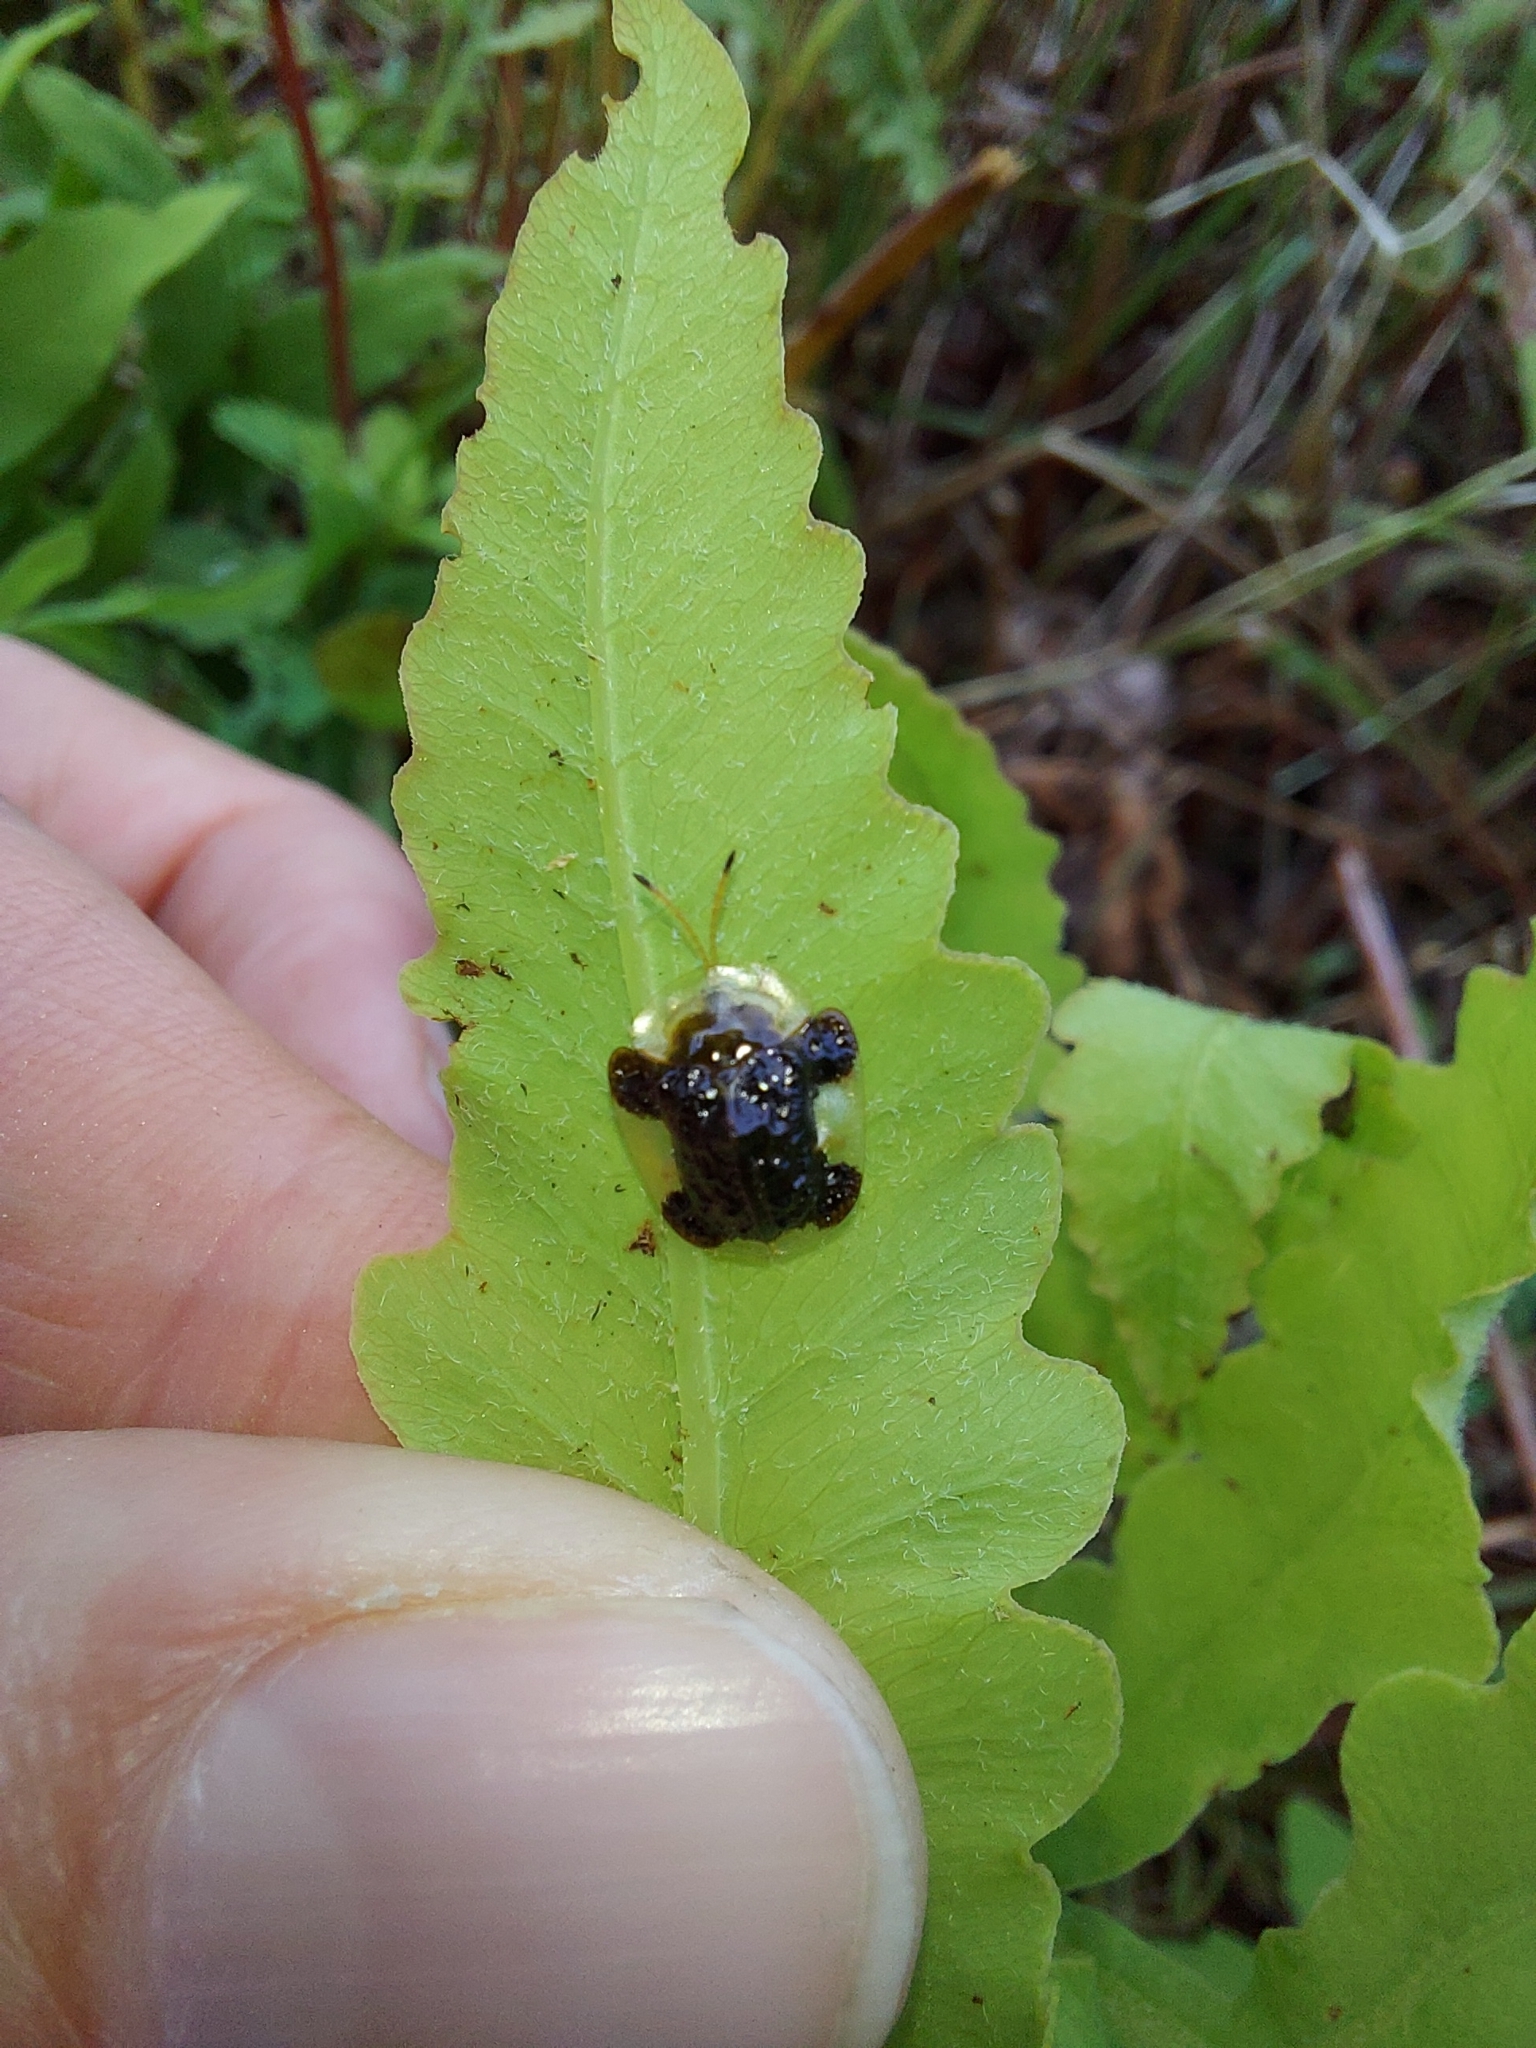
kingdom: Animalia
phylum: Arthropoda
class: Insecta
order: Coleoptera
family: Chrysomelidae
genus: Helocassis
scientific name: Helocassis clavata
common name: Clavate tortoise beetle
